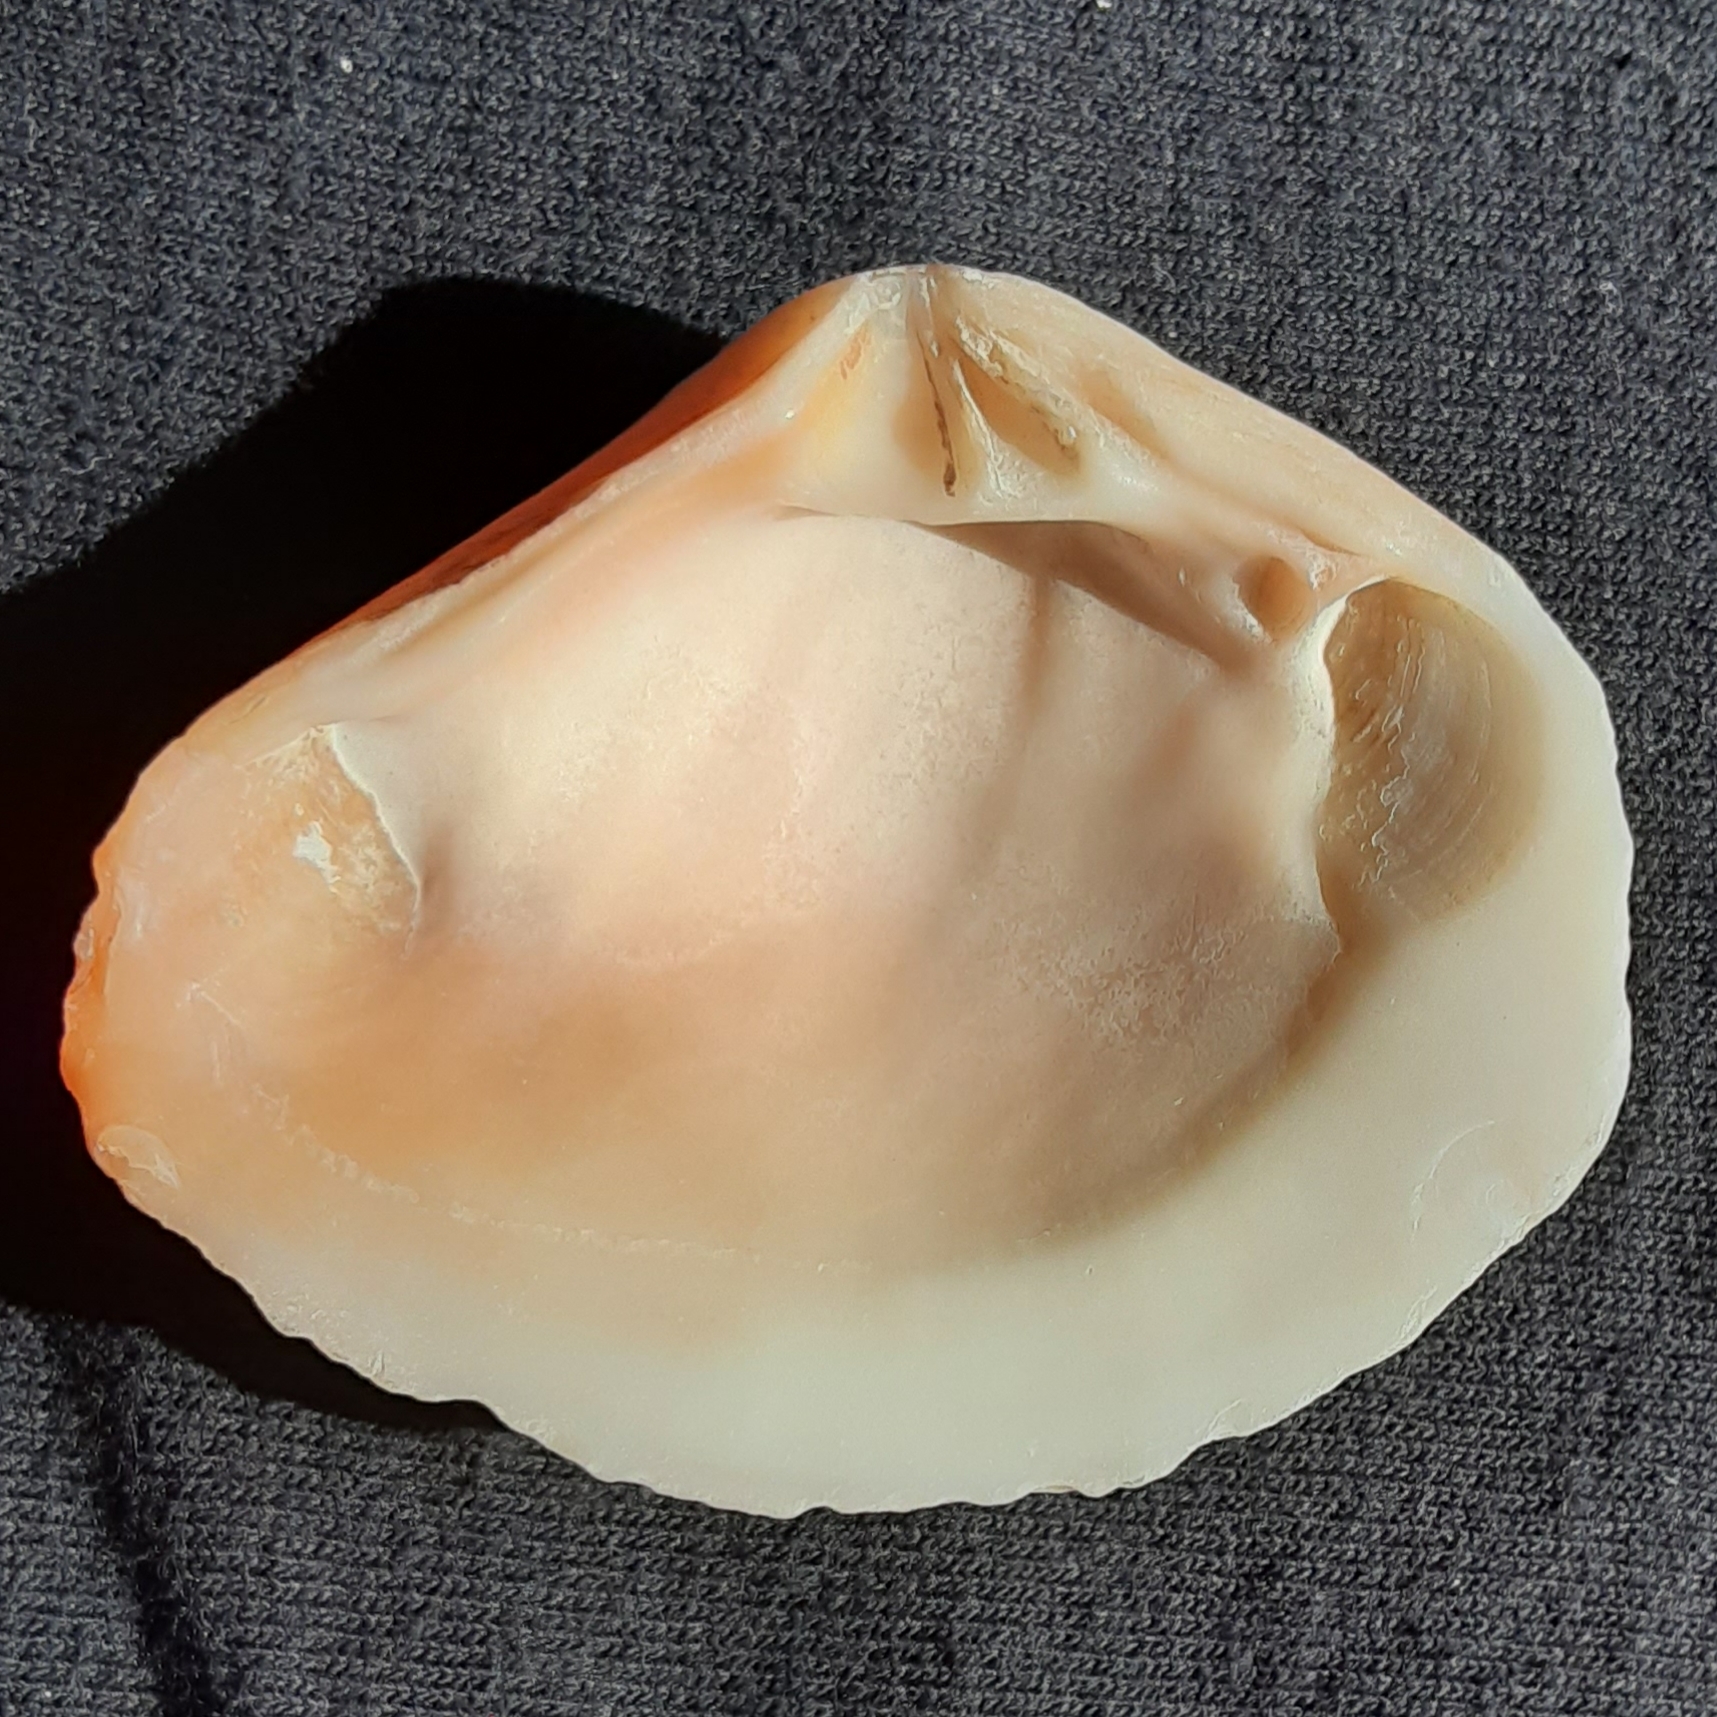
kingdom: Animalia
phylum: Mollusca
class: Bivalvia
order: Carditida
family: Crassatellidae
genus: Kalolophus
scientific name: Kalolophus speciosus
